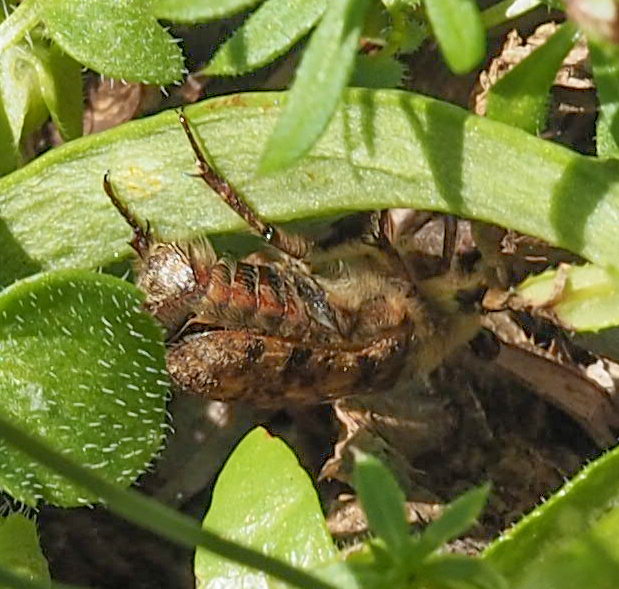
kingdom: Animalia
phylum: Arthropoda
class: Insecta
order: Coleoptera
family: Scarabaeidae
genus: Euphoria
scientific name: Euphoria inda
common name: Bumble flower beetle
